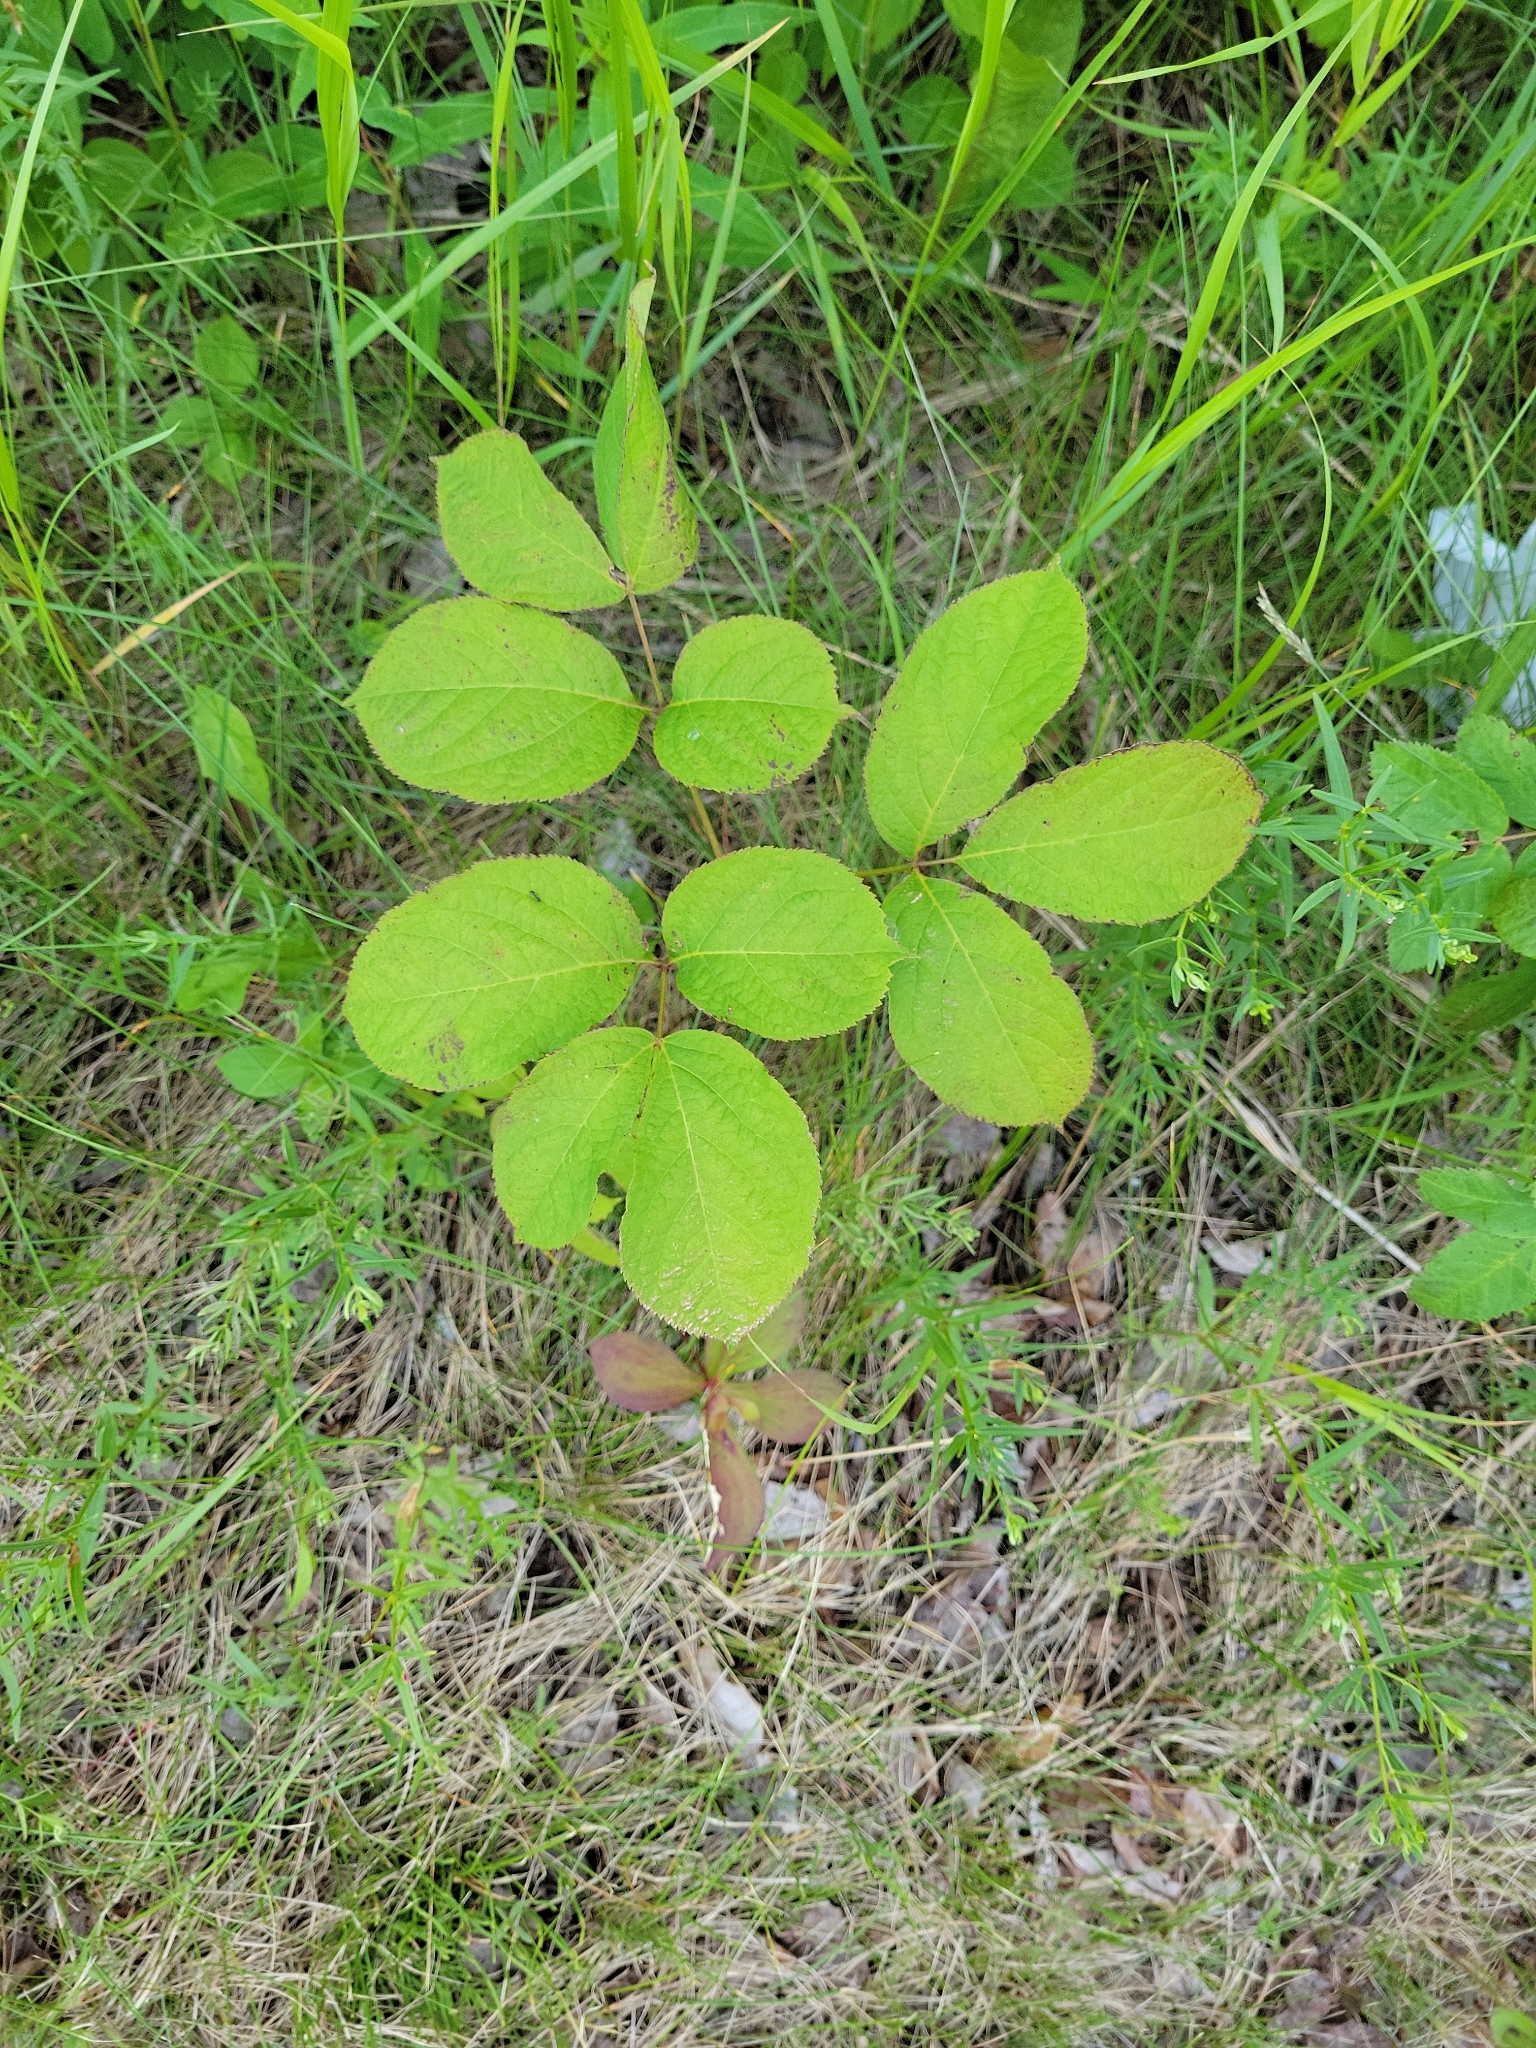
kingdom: Plantae
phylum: Tracheophyta
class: Magnoliopsida
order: Apiales
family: Araliaceae
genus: Aralia
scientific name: Aralia nudicaulis
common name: Wild sarsaparilla
